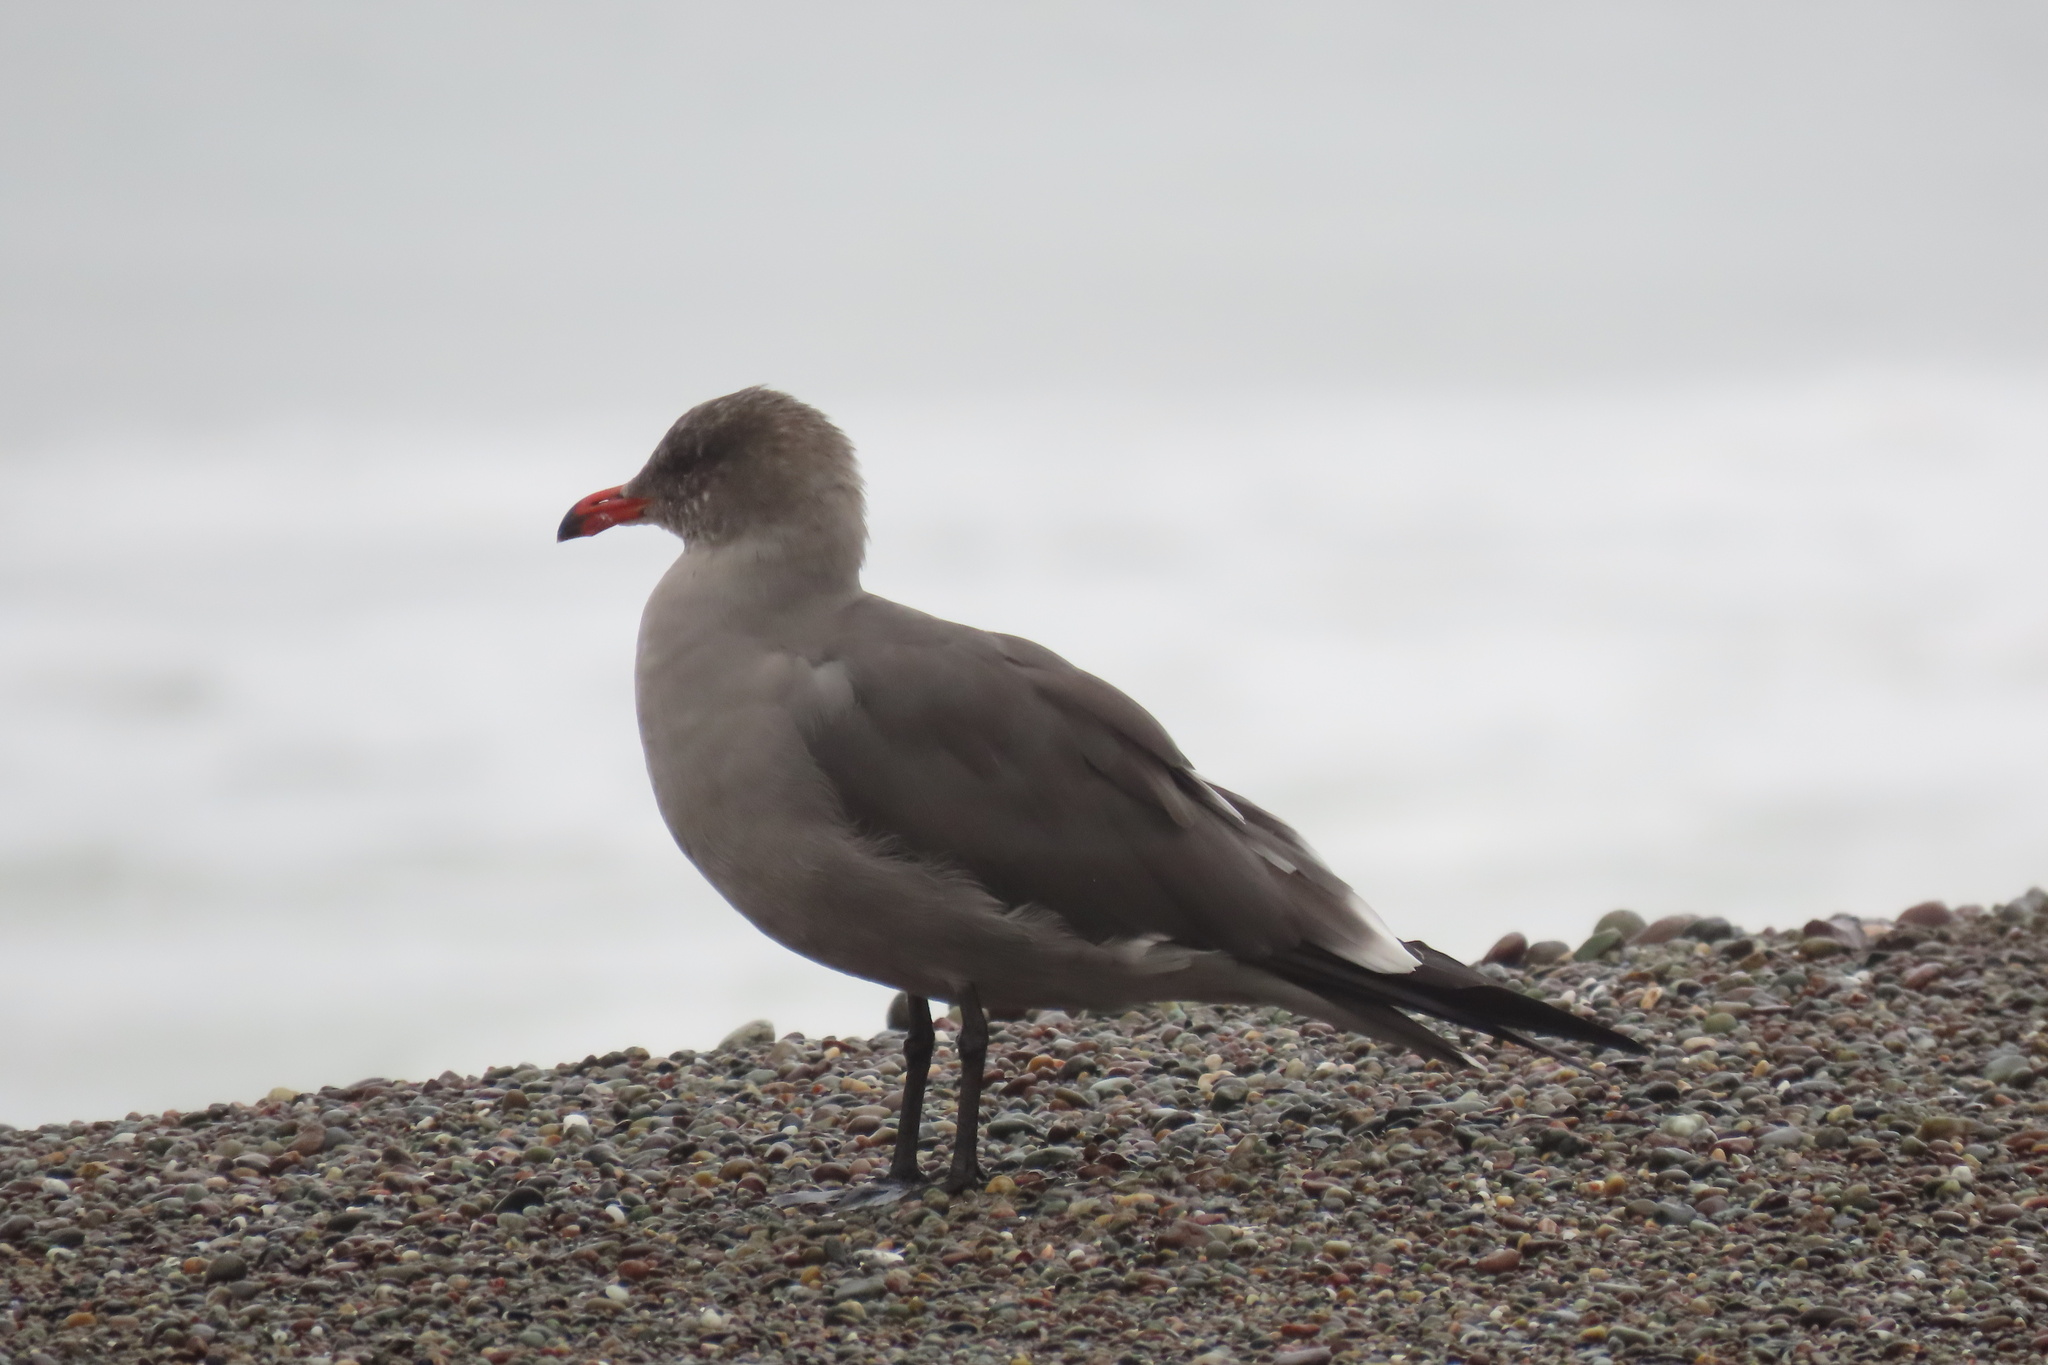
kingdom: Animalia
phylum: Chordata
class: Aves
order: Charadriiformes
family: Laridae
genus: Larus
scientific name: Larus heermanni
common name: Heermann's gull
